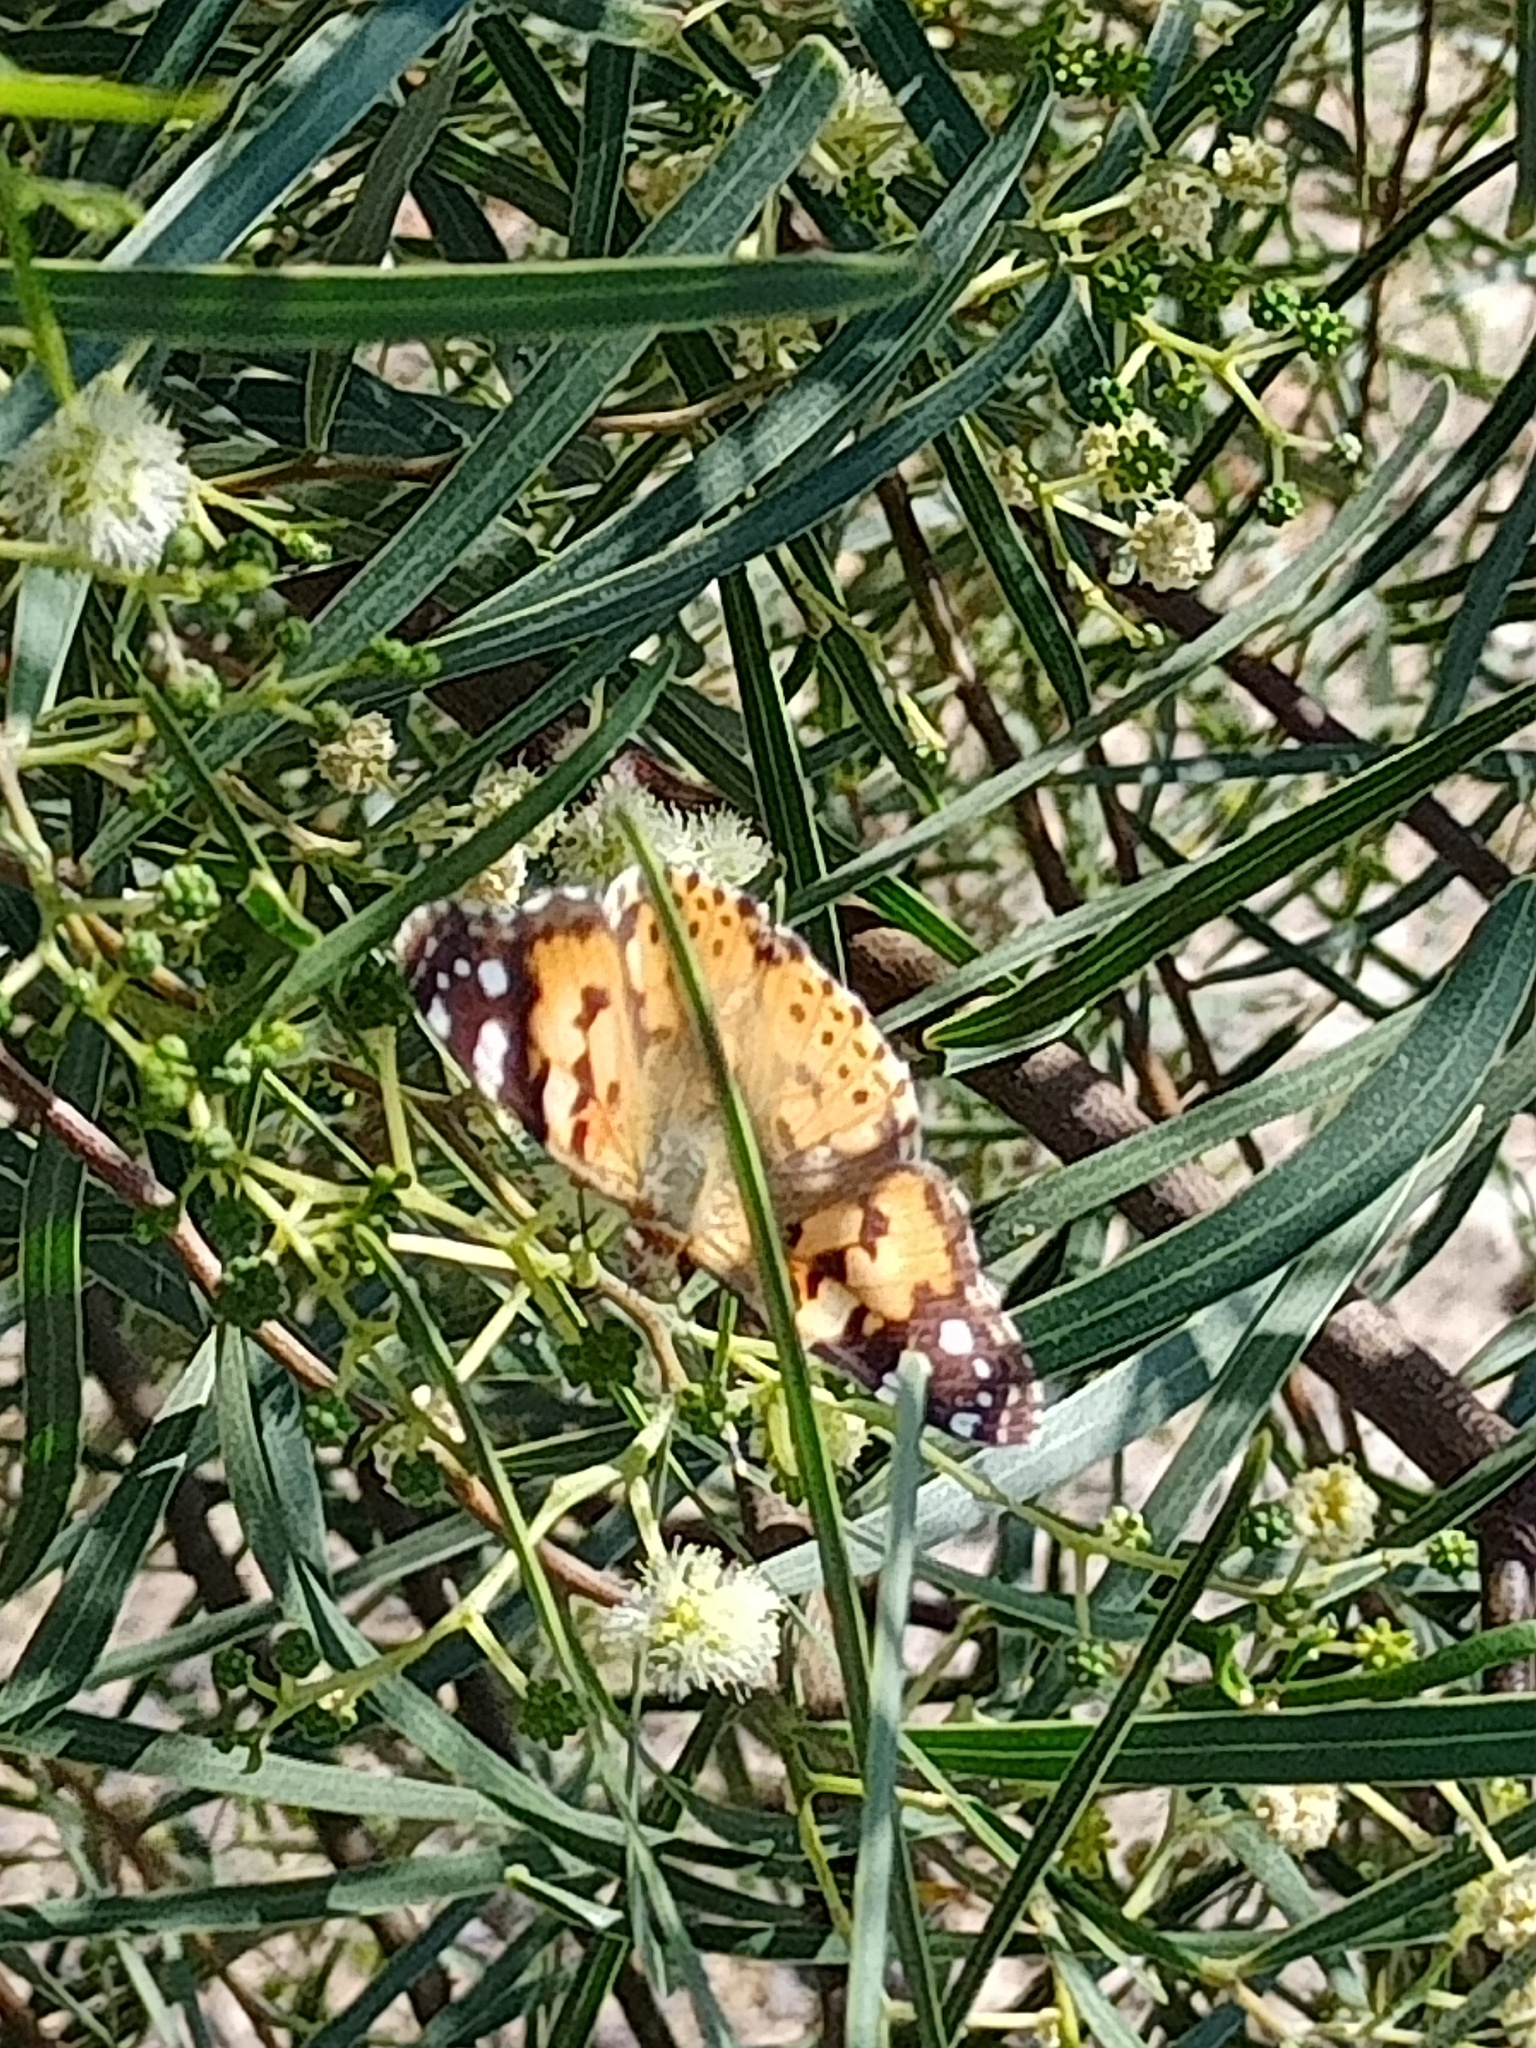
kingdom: Animalia
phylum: Arthropoda
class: Insecta
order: Lepidoptera
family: Nymphalidae
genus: Vanessa
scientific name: Vanessa cardui
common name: Painted lady
